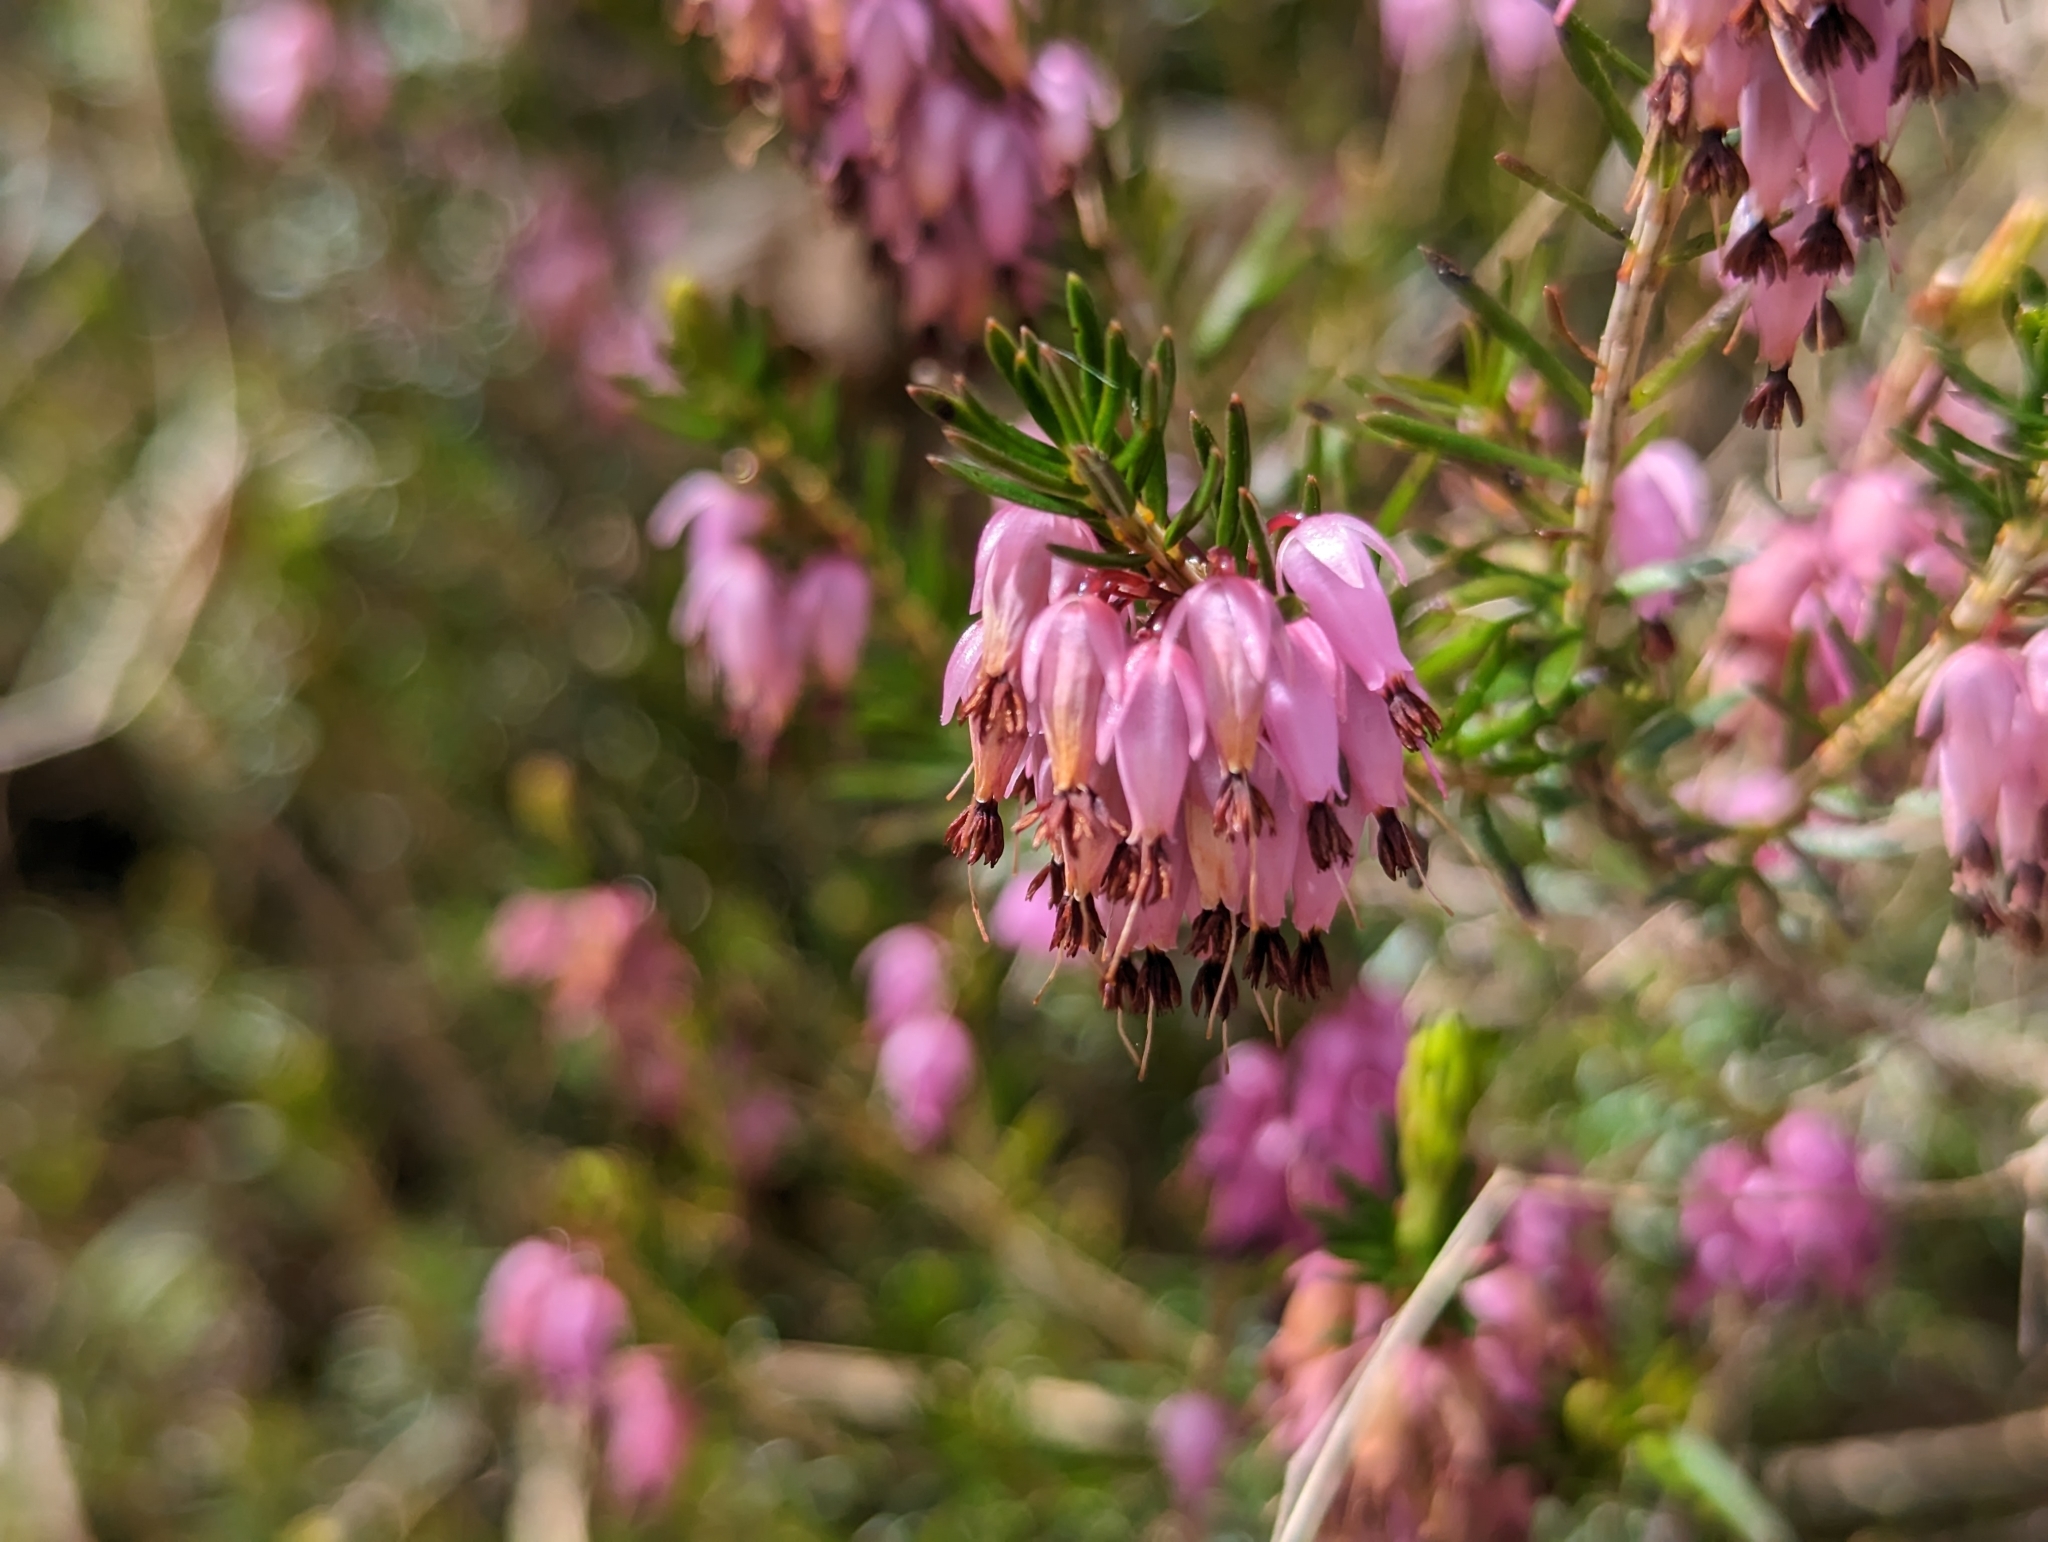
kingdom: Plantae
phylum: Tracheophyta
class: Magnoliopsida
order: Ericales
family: Ericaceae
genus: Erica
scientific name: Erica carnea
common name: Winter heath
